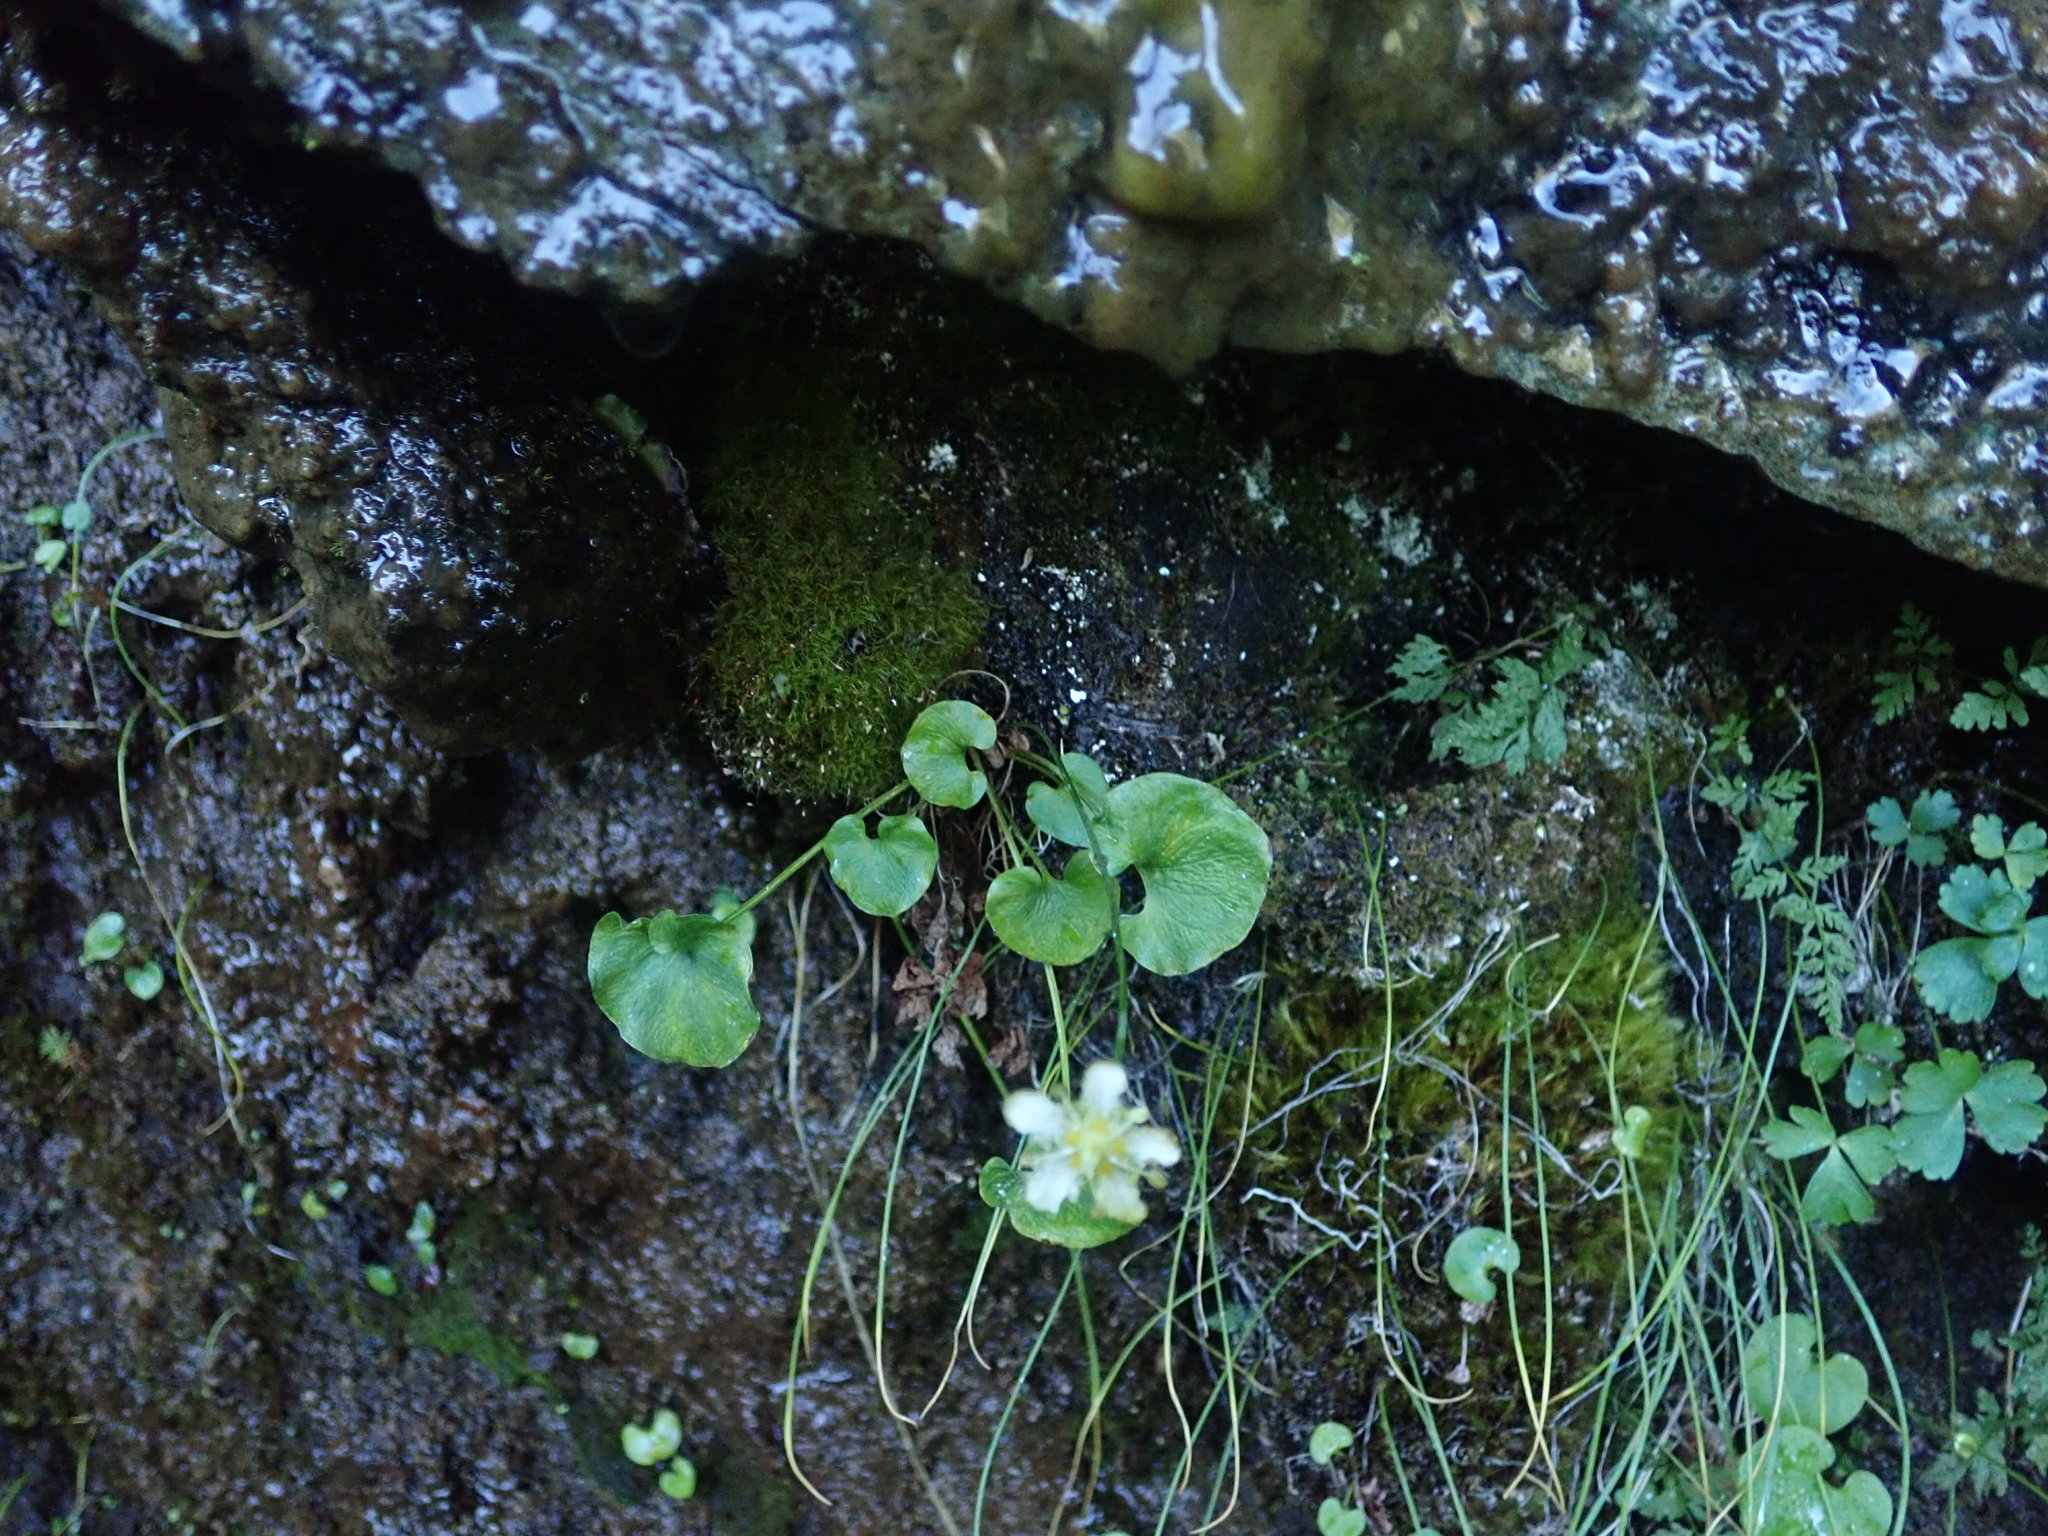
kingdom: Plantae
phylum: Tracheophyta
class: Magnoliopsida
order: Celastrales
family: Parnassiaceae
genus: Parnassia
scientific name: Parnassia fimbriata
